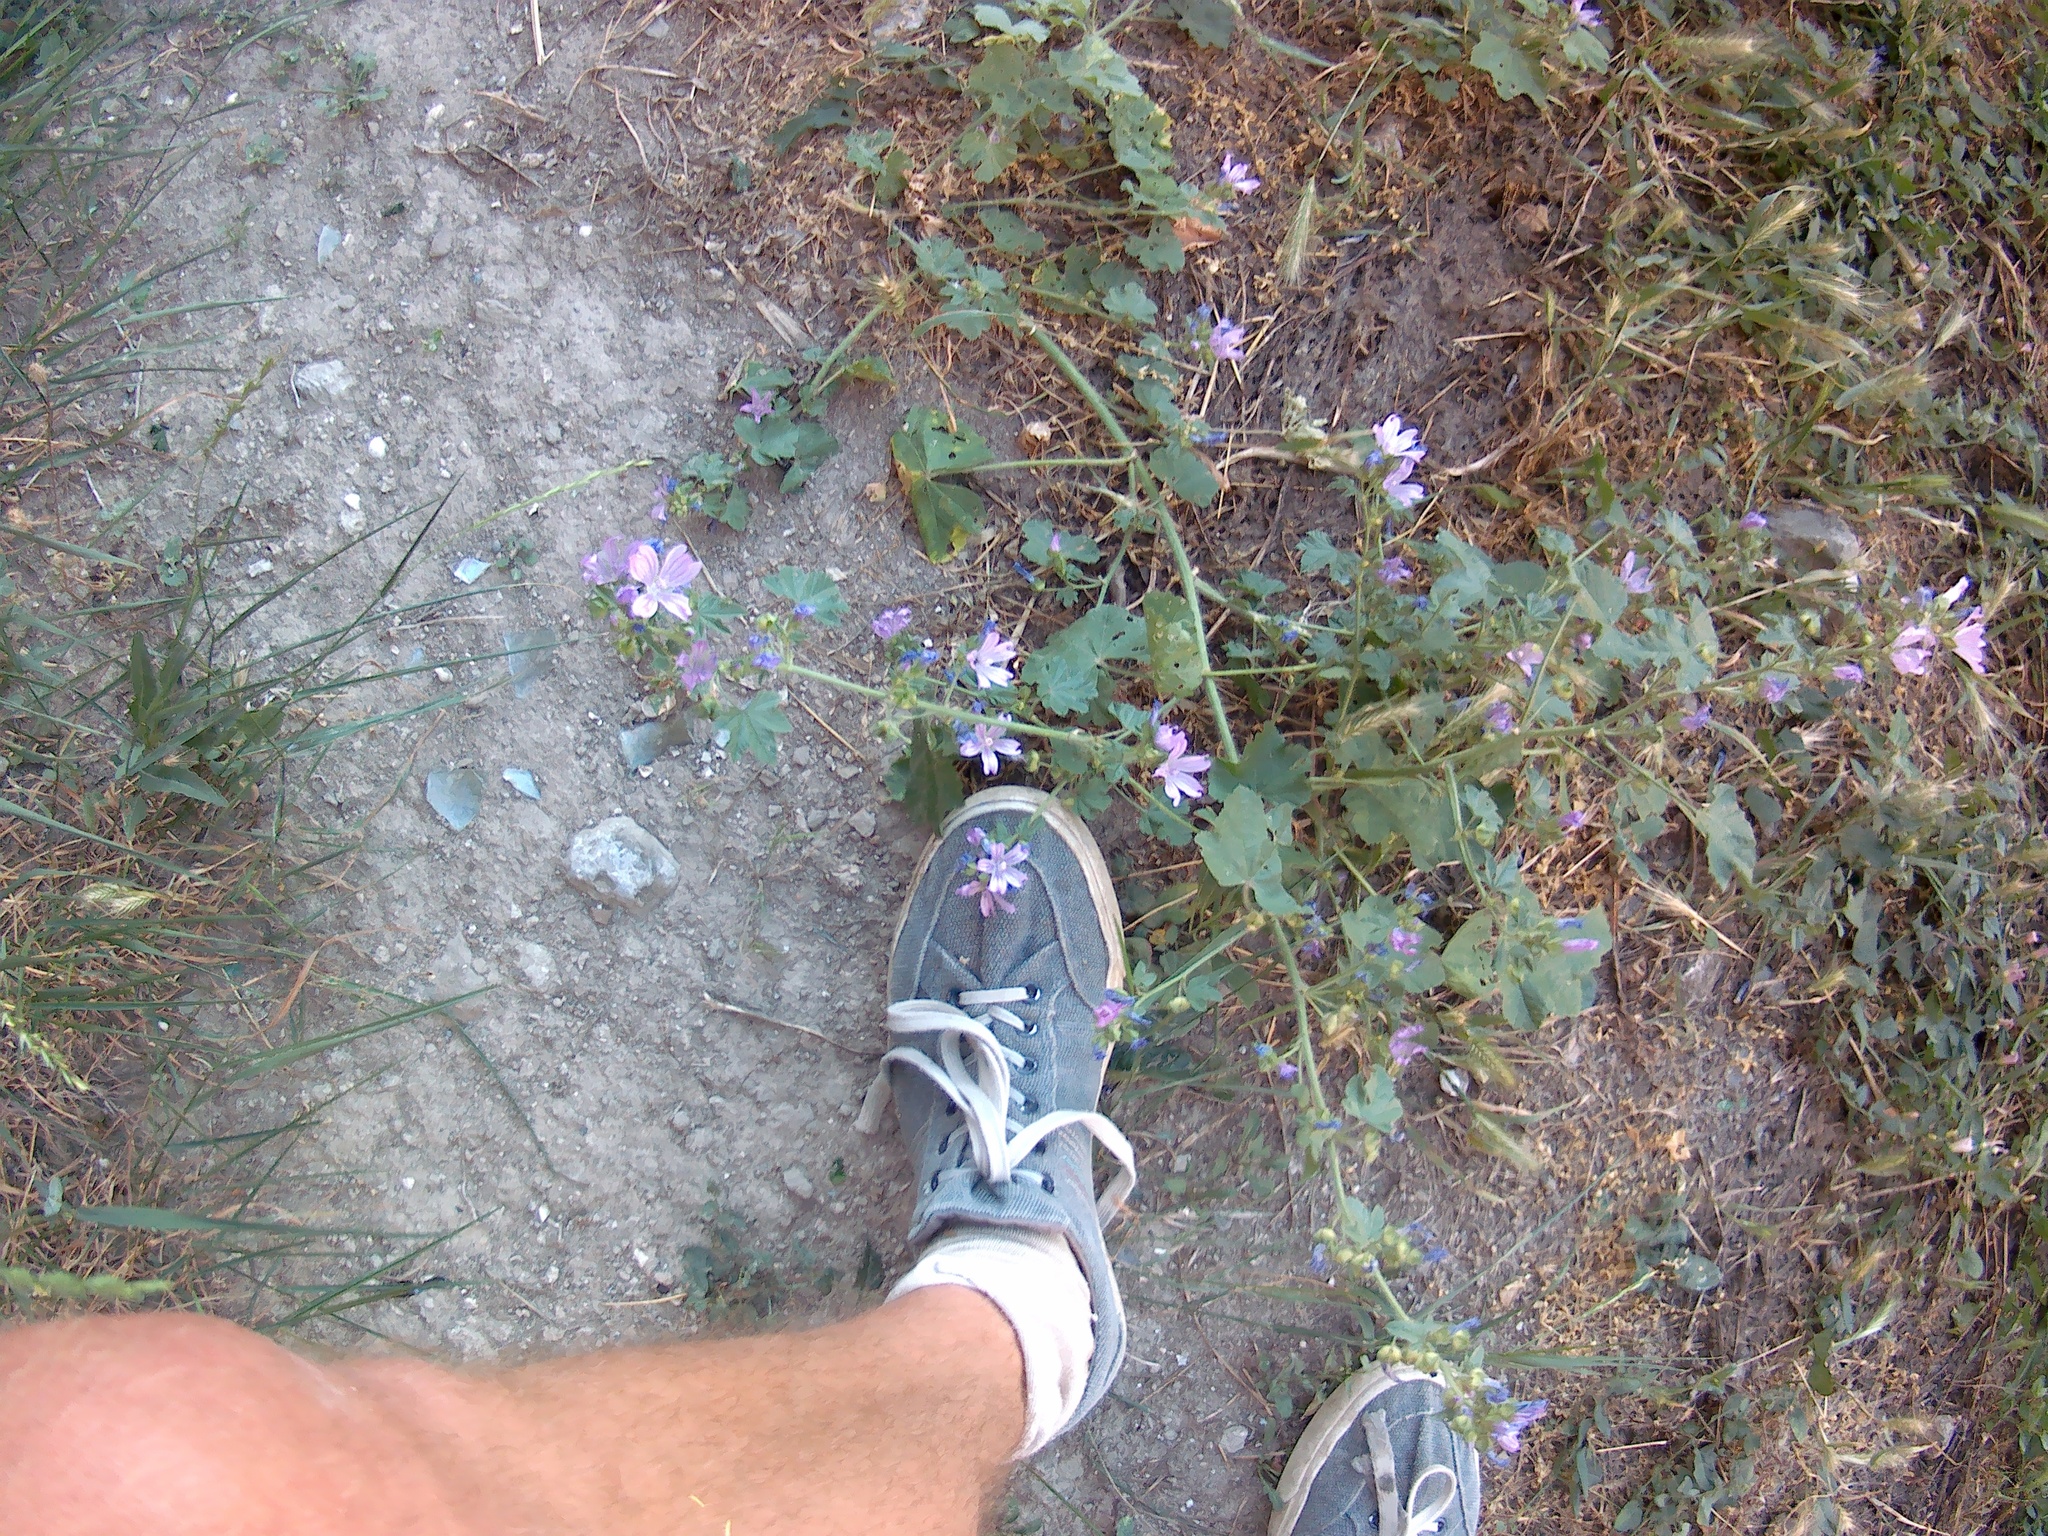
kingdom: Plantae
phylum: Tracheophyta
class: Magnoliopsida
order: Malvales
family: Malvaceae
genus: Malva
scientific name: Malva sylvestris
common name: Common mallow
